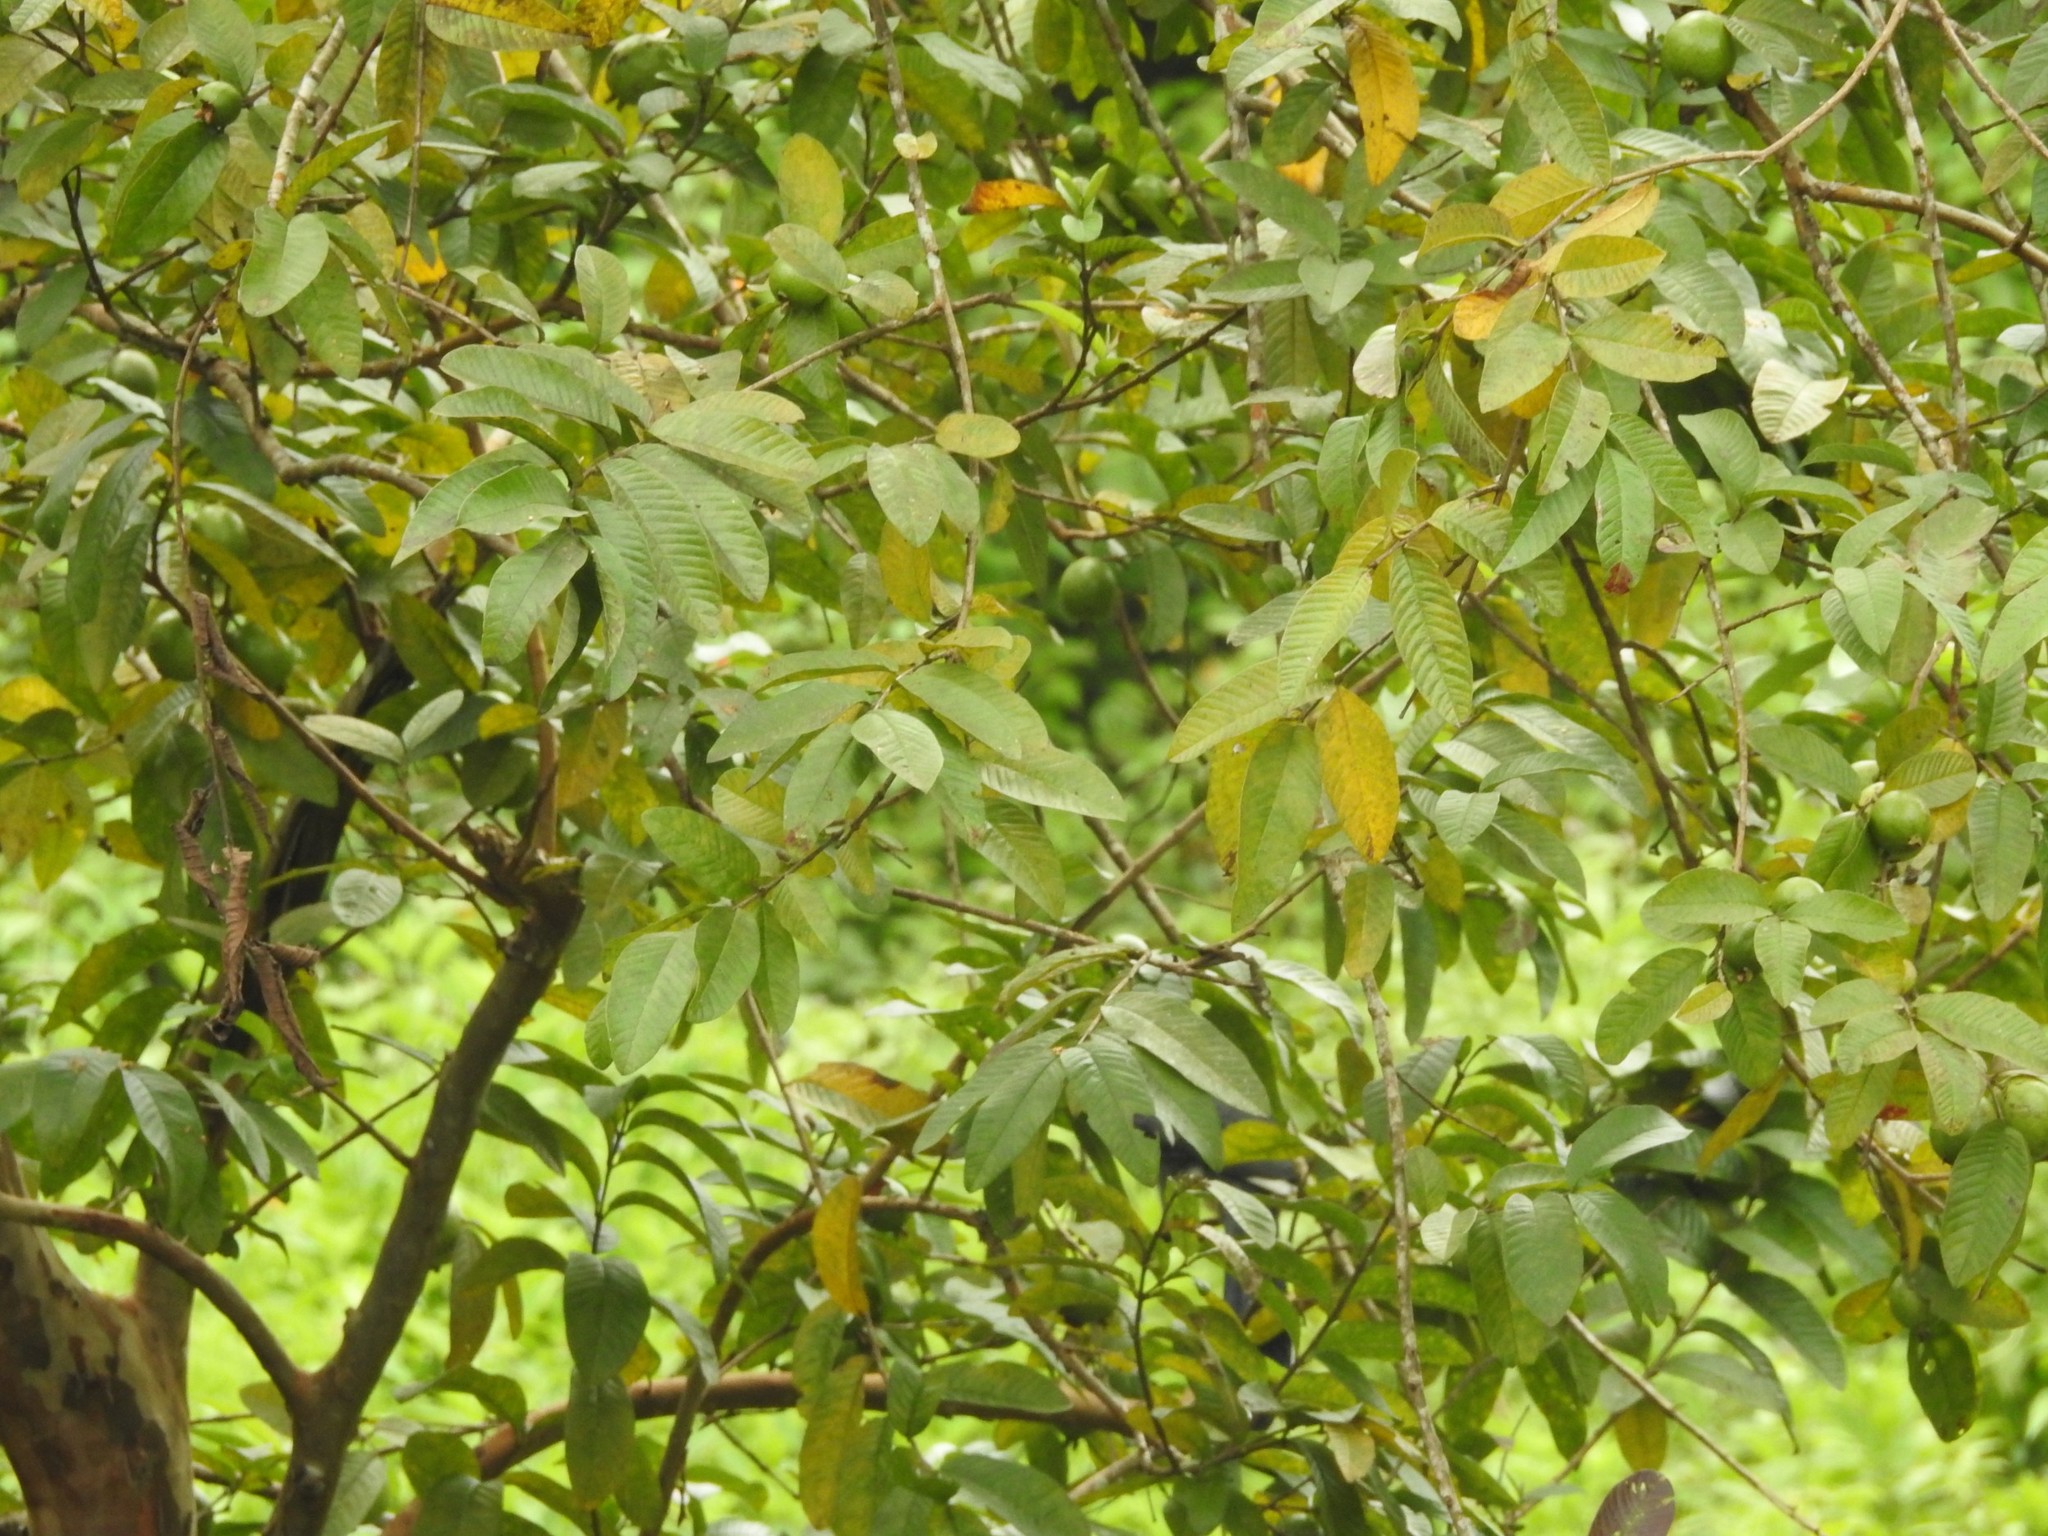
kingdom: Plantae
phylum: Tracheophyta
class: Magnoliopsida
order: Myrtales
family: Myrtaceae
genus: Psidium
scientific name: Psidium guajava
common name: Guava
